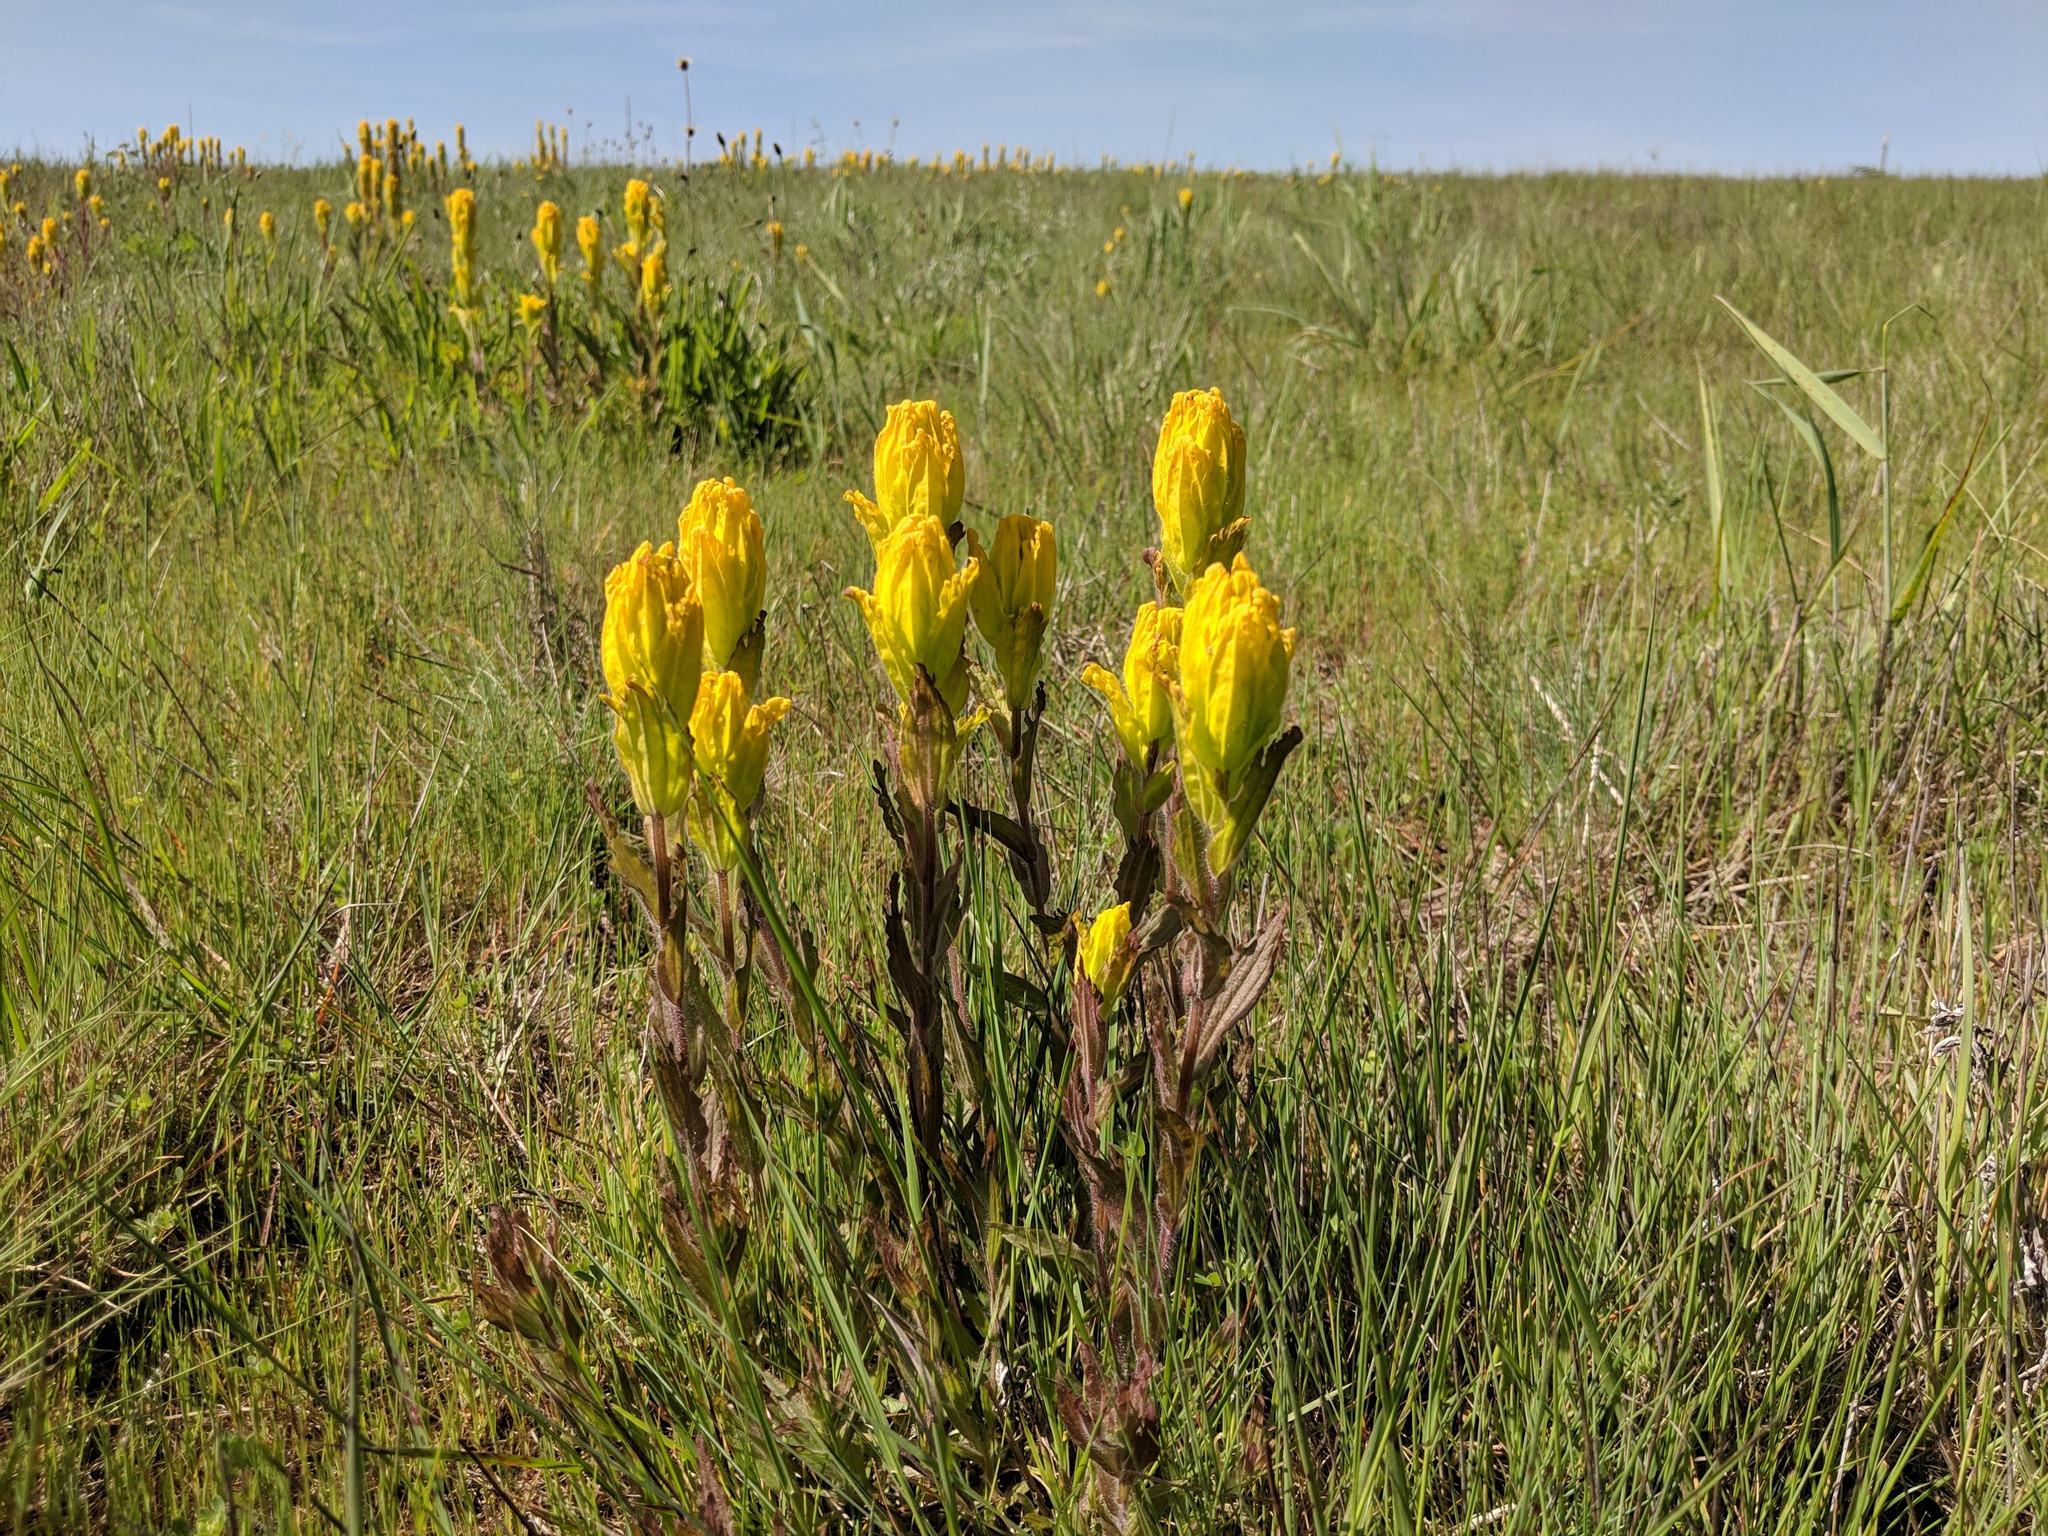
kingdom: Plantae
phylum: Tracheophyta
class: Magnoliopsida
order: Lamiales
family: Orobanchaceae
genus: Castilleja
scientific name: Castilleja levisecta
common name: Golden paintbrush
